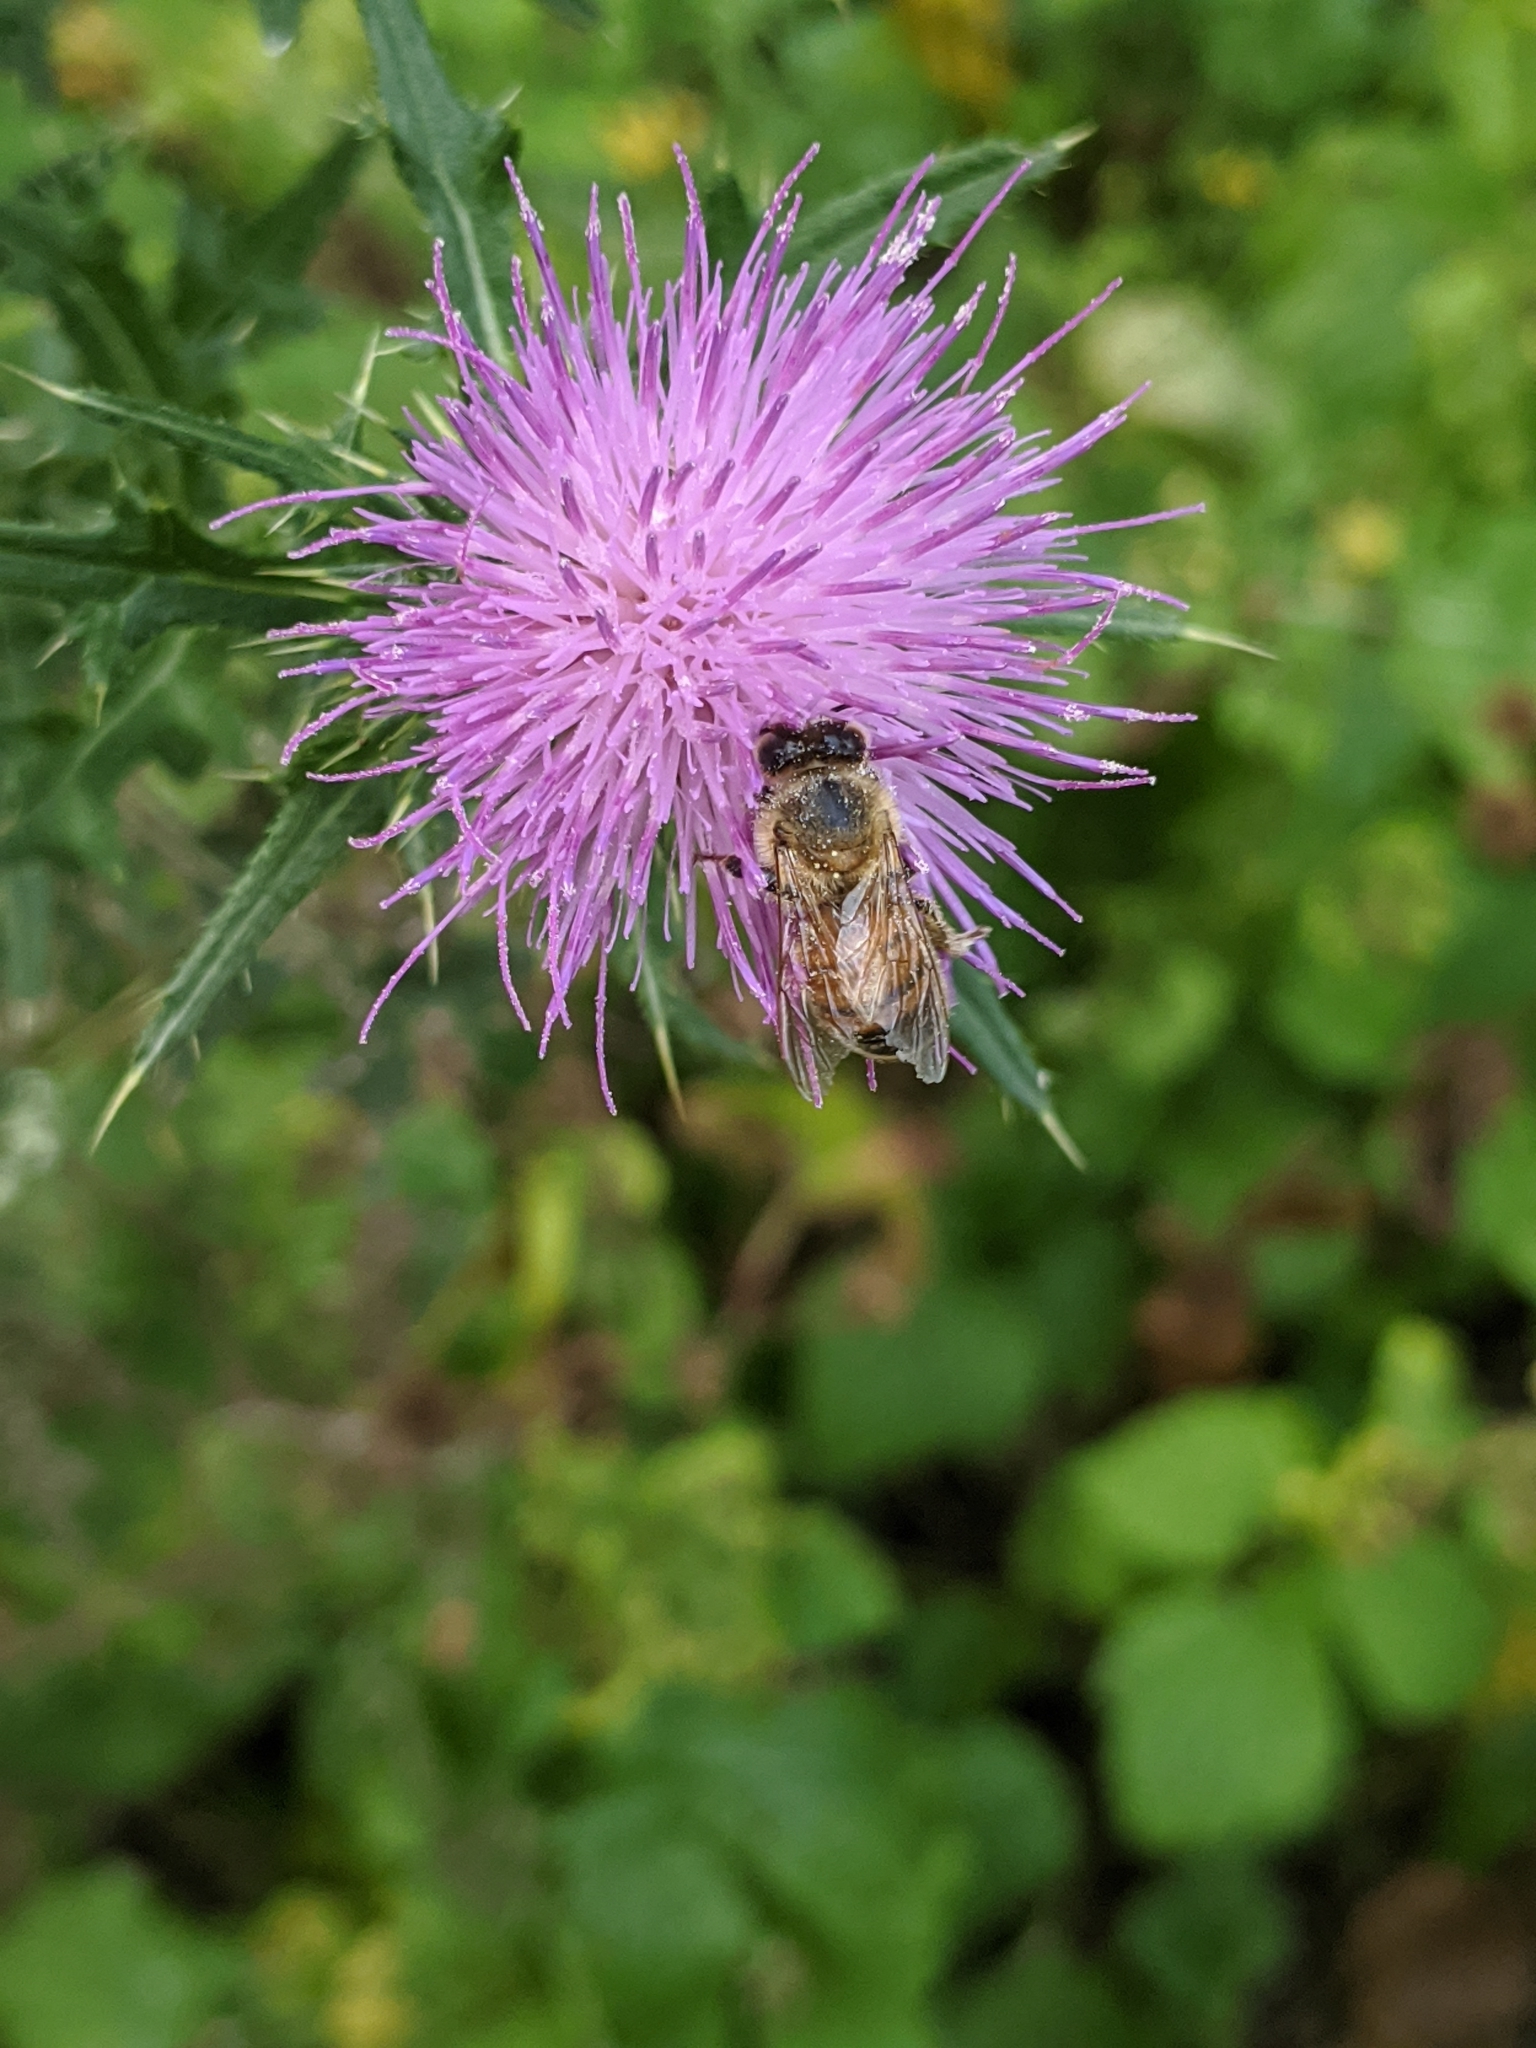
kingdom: Animalia
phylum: Arthropoda
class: Insecta
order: Hymenoptera
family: Apidae
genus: Apis
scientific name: Apis mellifera
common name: Honey bee
